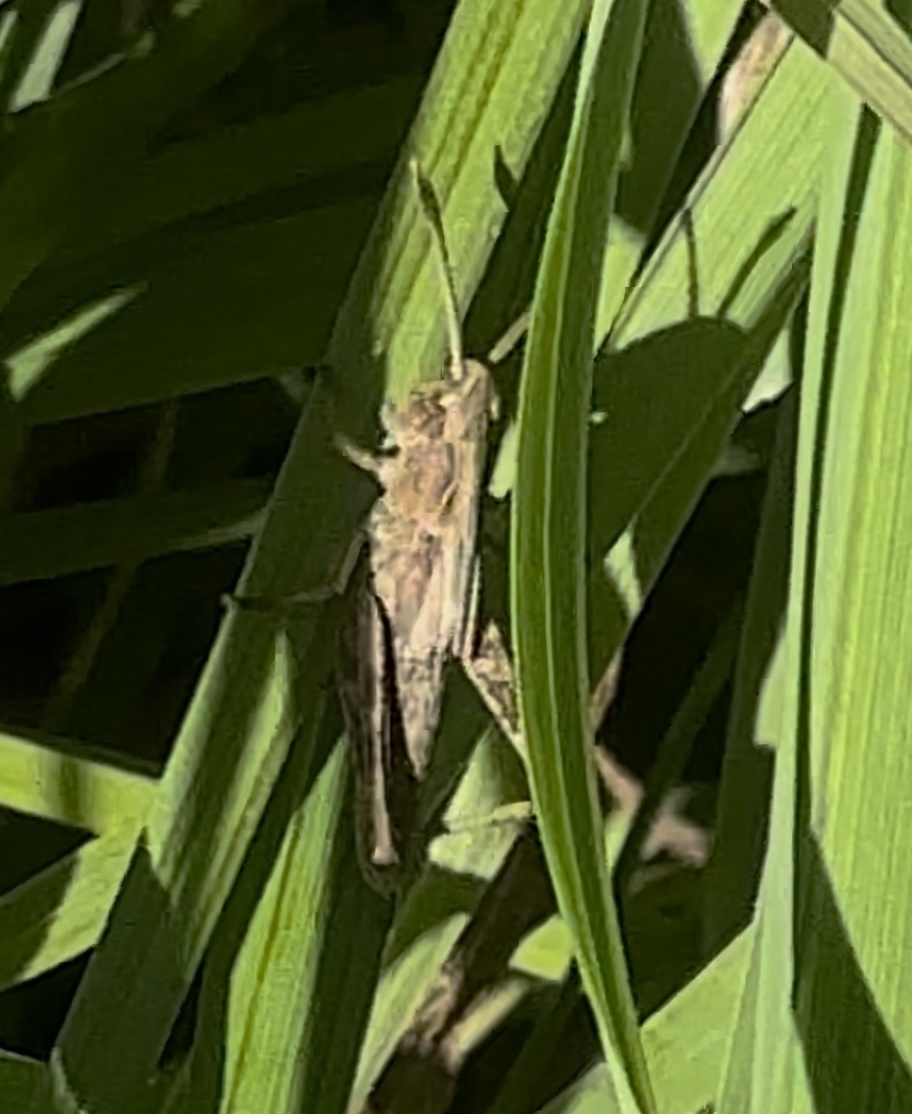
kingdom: Animalia
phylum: Arthropoda
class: Insecta
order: Orthoptera
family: Acrididae
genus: Gomphocerippus
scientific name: Gomphocerippus rufus
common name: Rufous grasshopper
